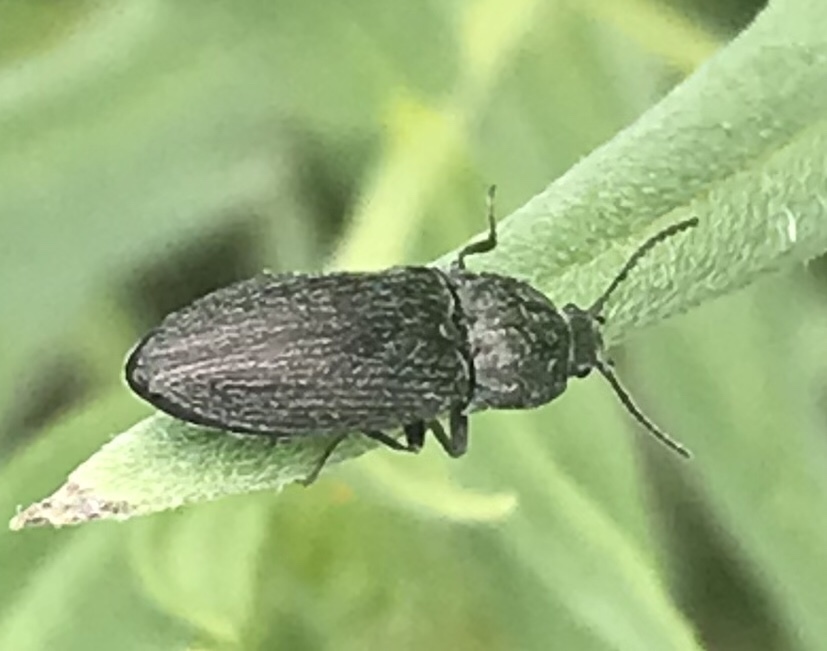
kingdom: Animalia
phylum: Arthropoda
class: Insecta
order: Coleoptera
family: Elateridae
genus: Hadromorphus
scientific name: Hadromorphus glaucus
